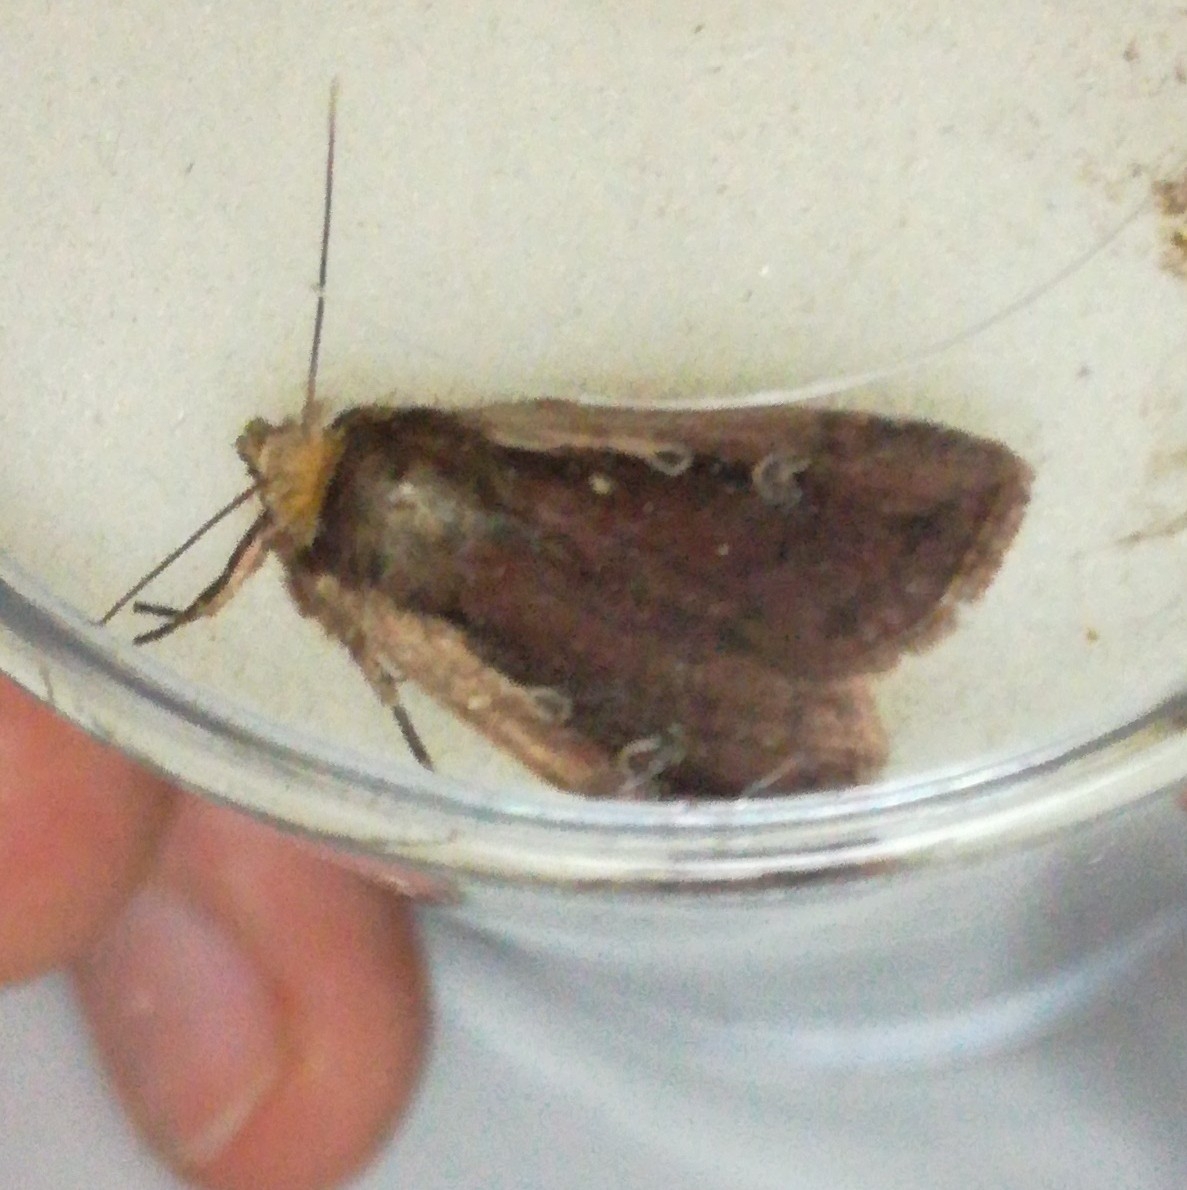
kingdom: Animalia
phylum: Arthropoda
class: Insecta
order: Lepidoptera
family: Noctuidae
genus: Ochropleura
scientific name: Ochropleura plecta
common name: Flame shoulder
